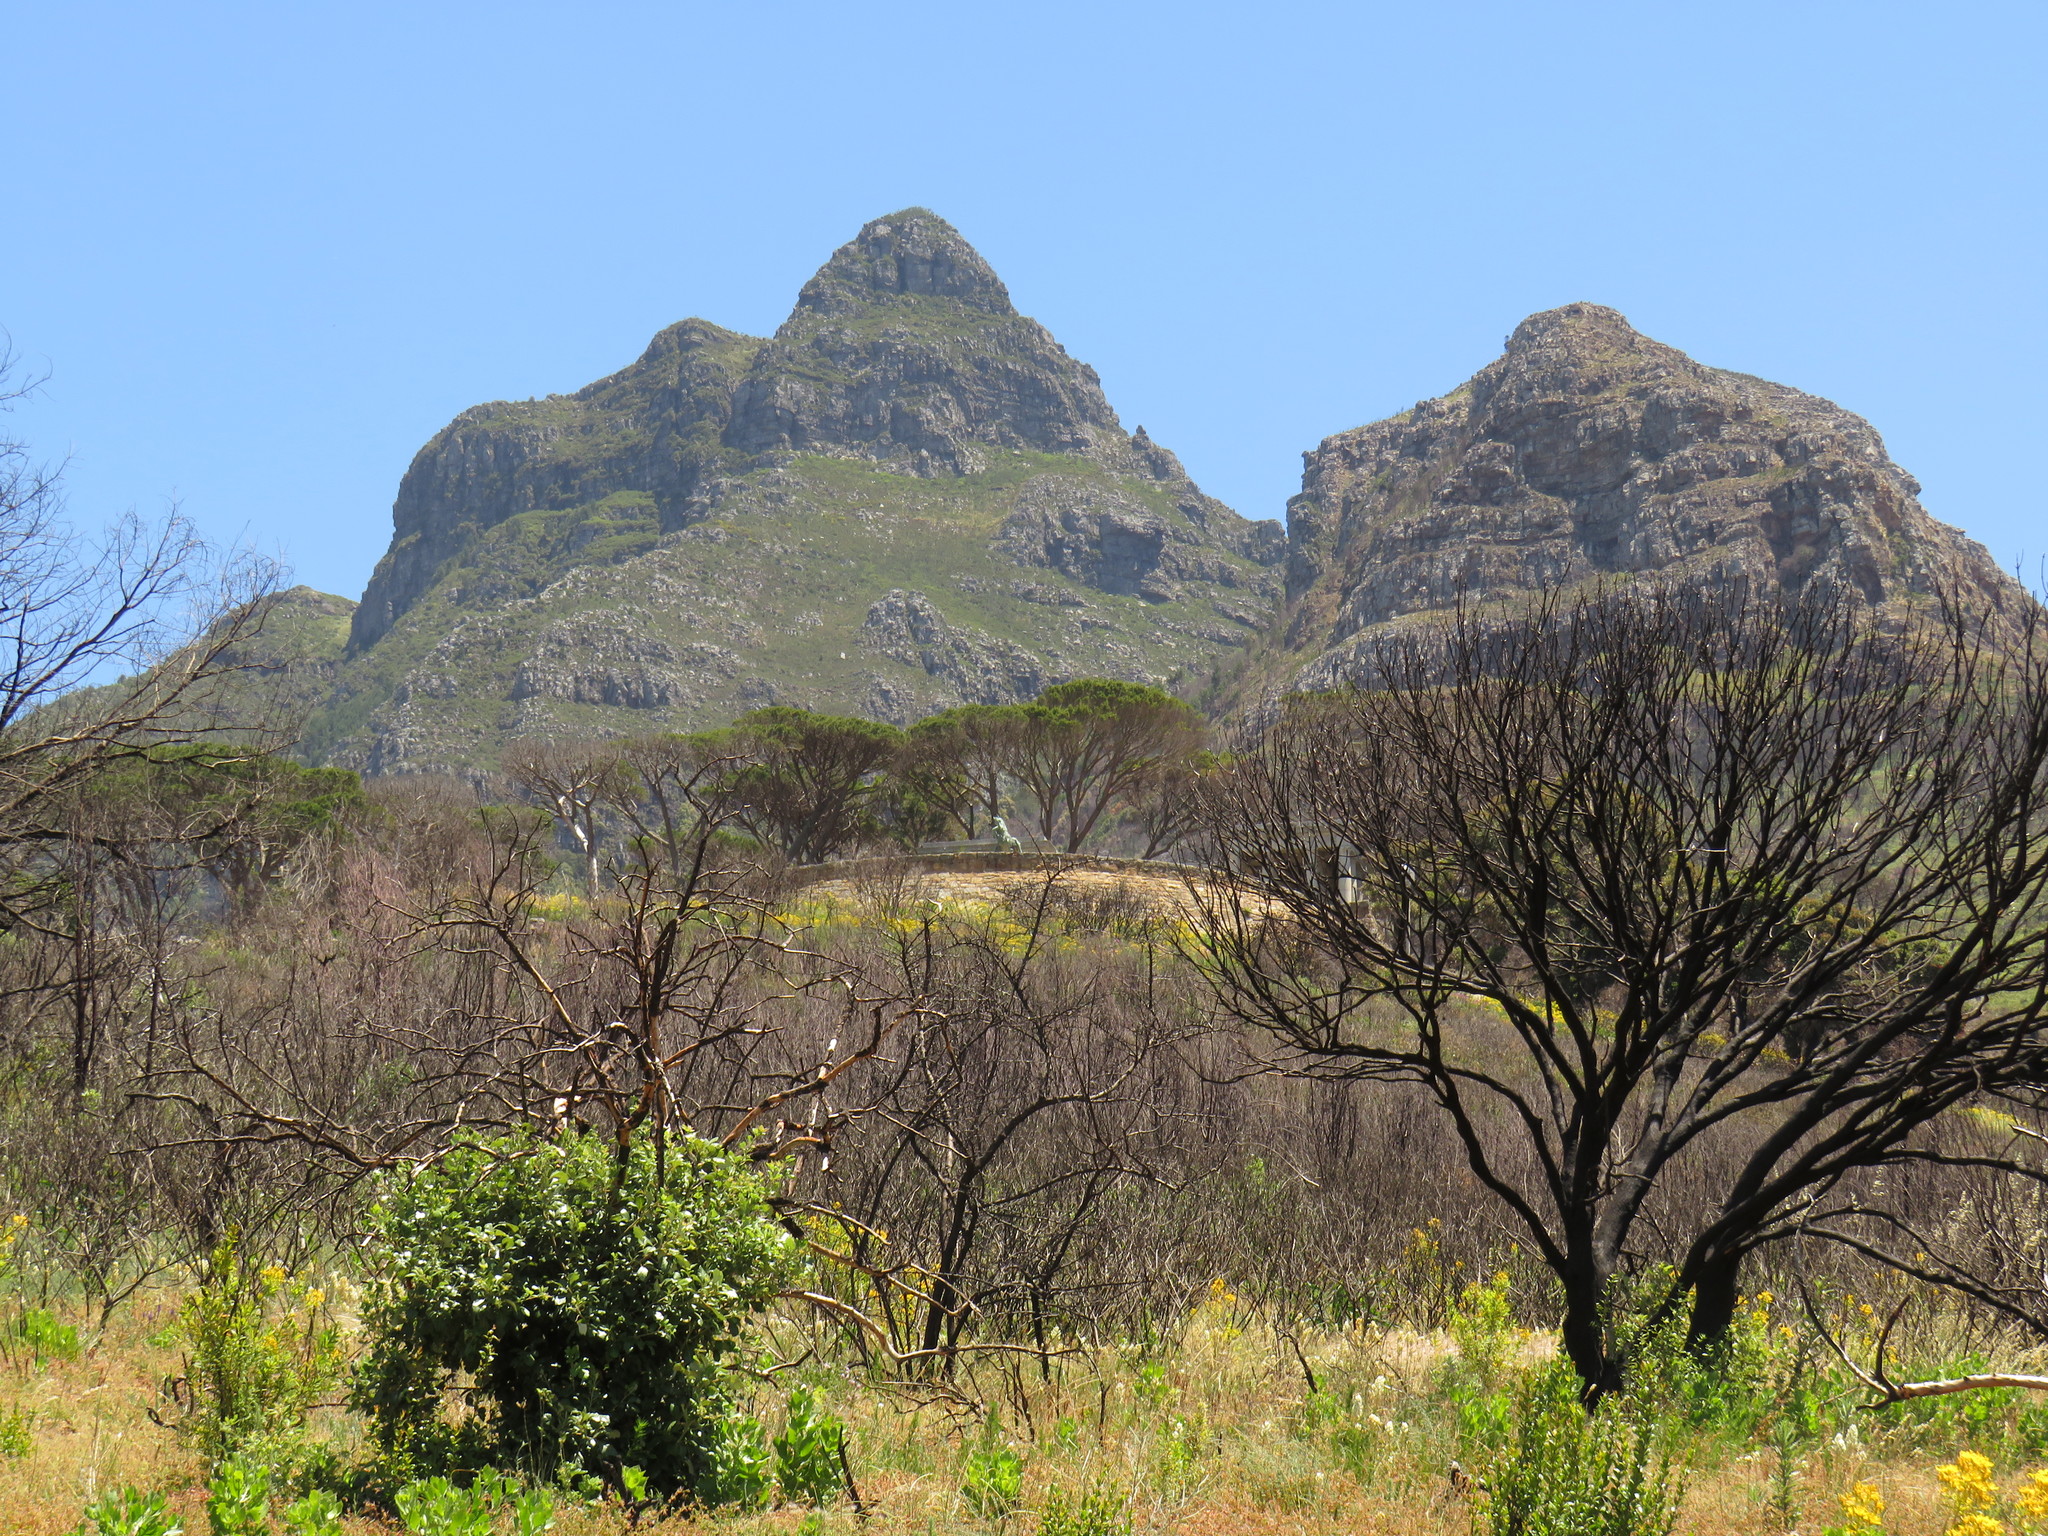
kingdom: Plantae
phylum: Tracheophyta
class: Magnoliopsida
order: Sapindales
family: Anacardiaceae
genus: Searsia
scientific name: Searsia tomentosa
